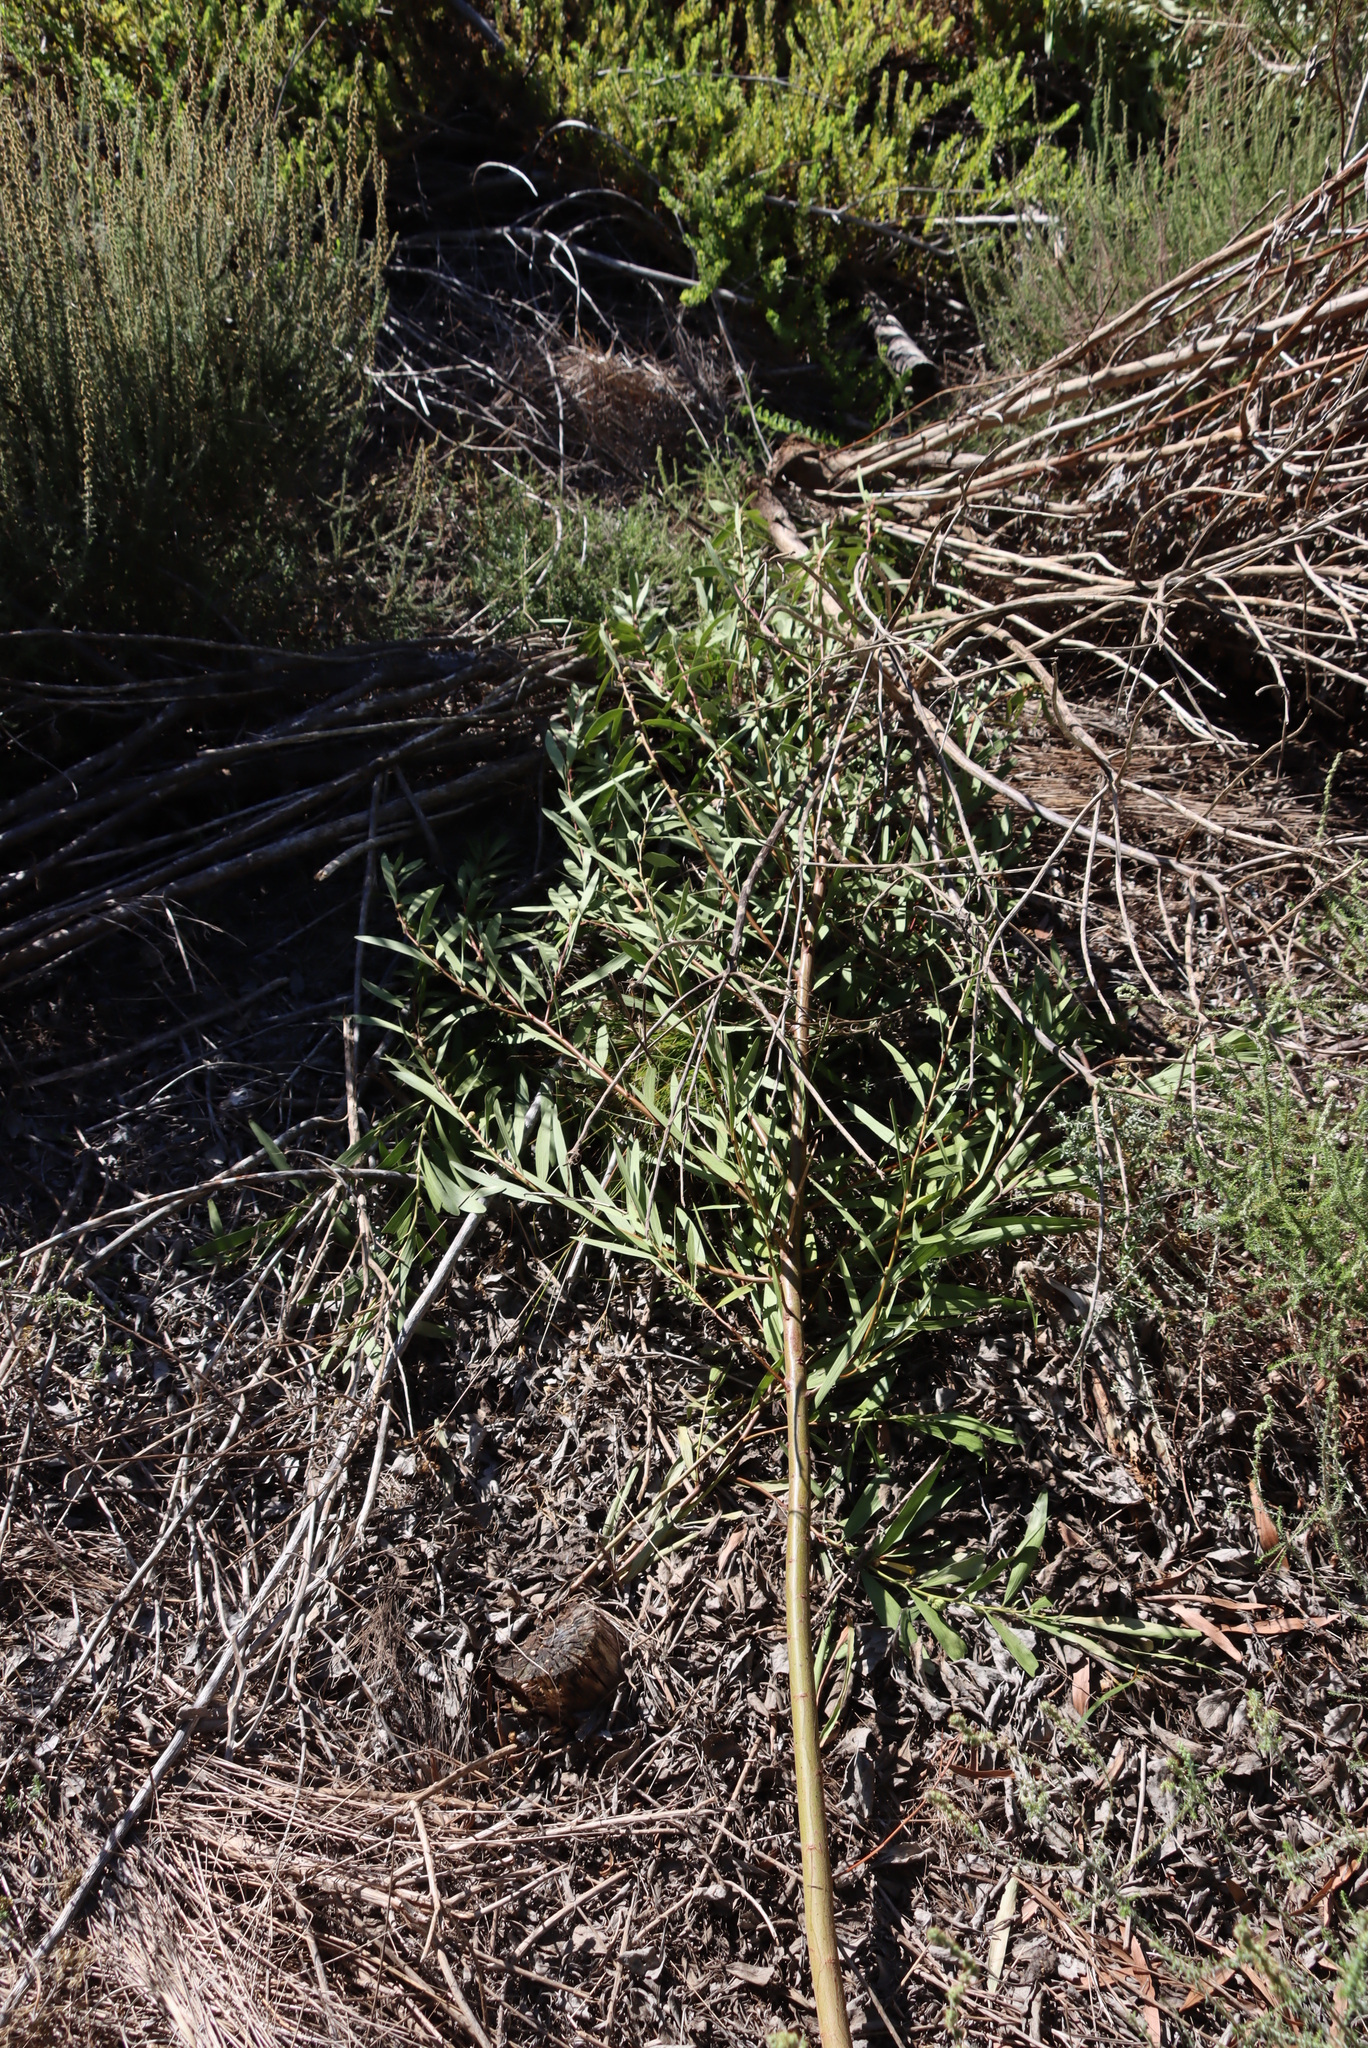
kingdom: Plantae
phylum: Tracheophyta
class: Magnoliopsida
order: Fabales
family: Fabaceae
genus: Acacia
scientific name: Acacia longifolia
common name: Sydney golden wattle
